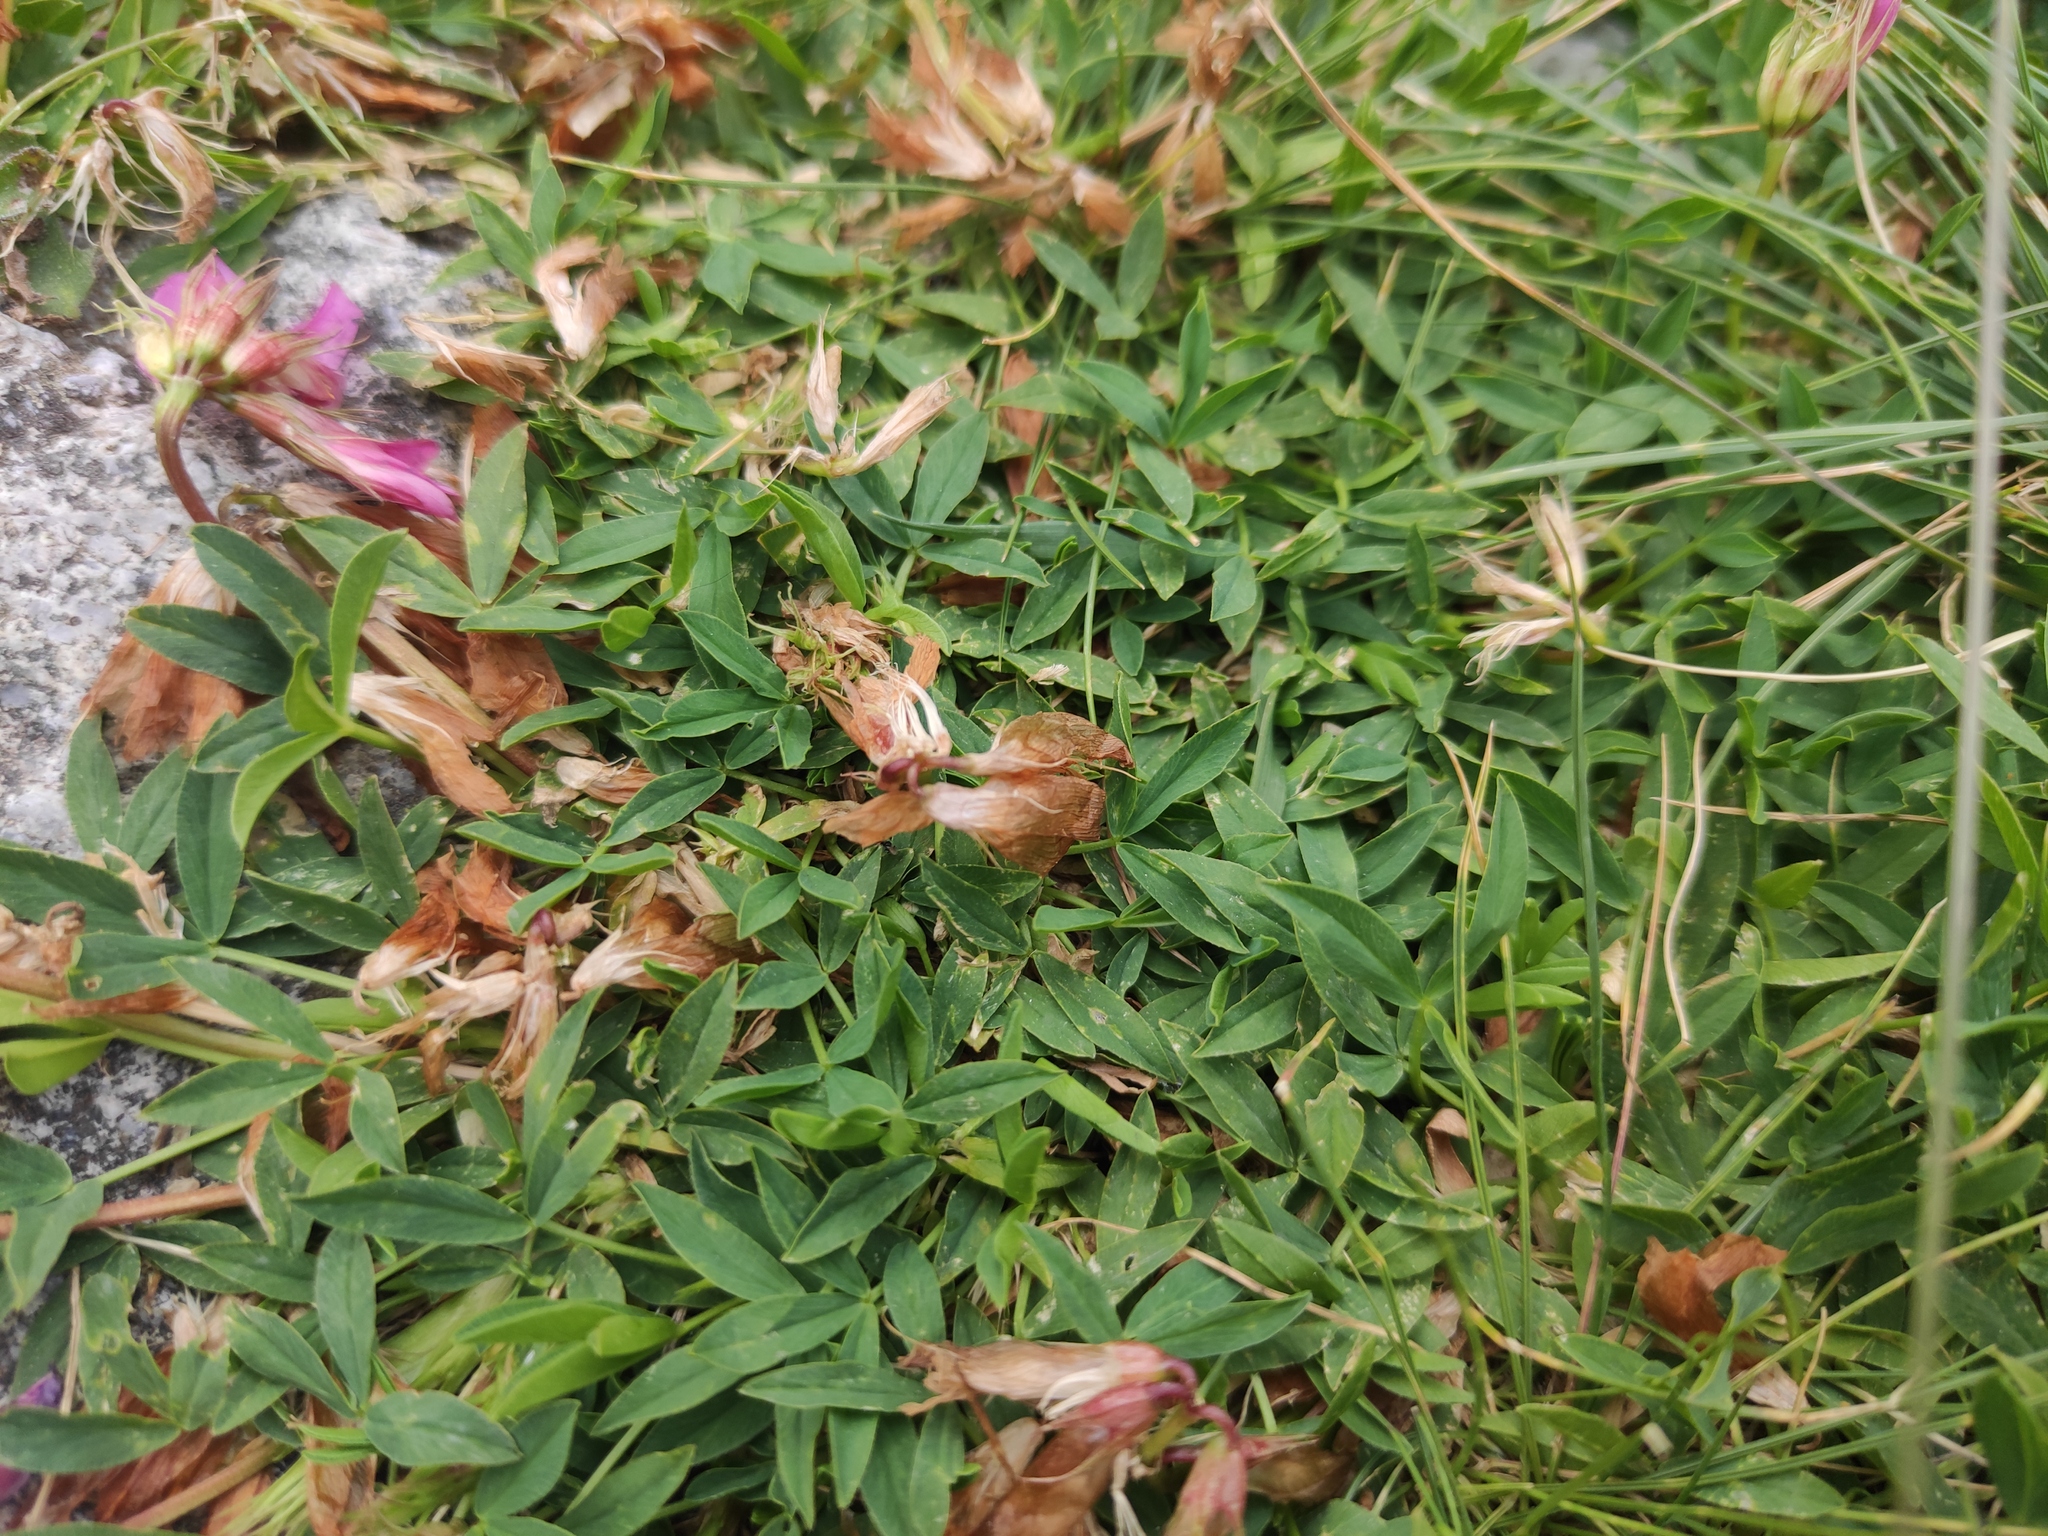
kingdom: Plantae
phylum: Tracheophyta
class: Magnoliopsida
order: Fabales
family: Fabaceae
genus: Trifolium
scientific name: Trifolium alpinum
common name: Alpine clover
